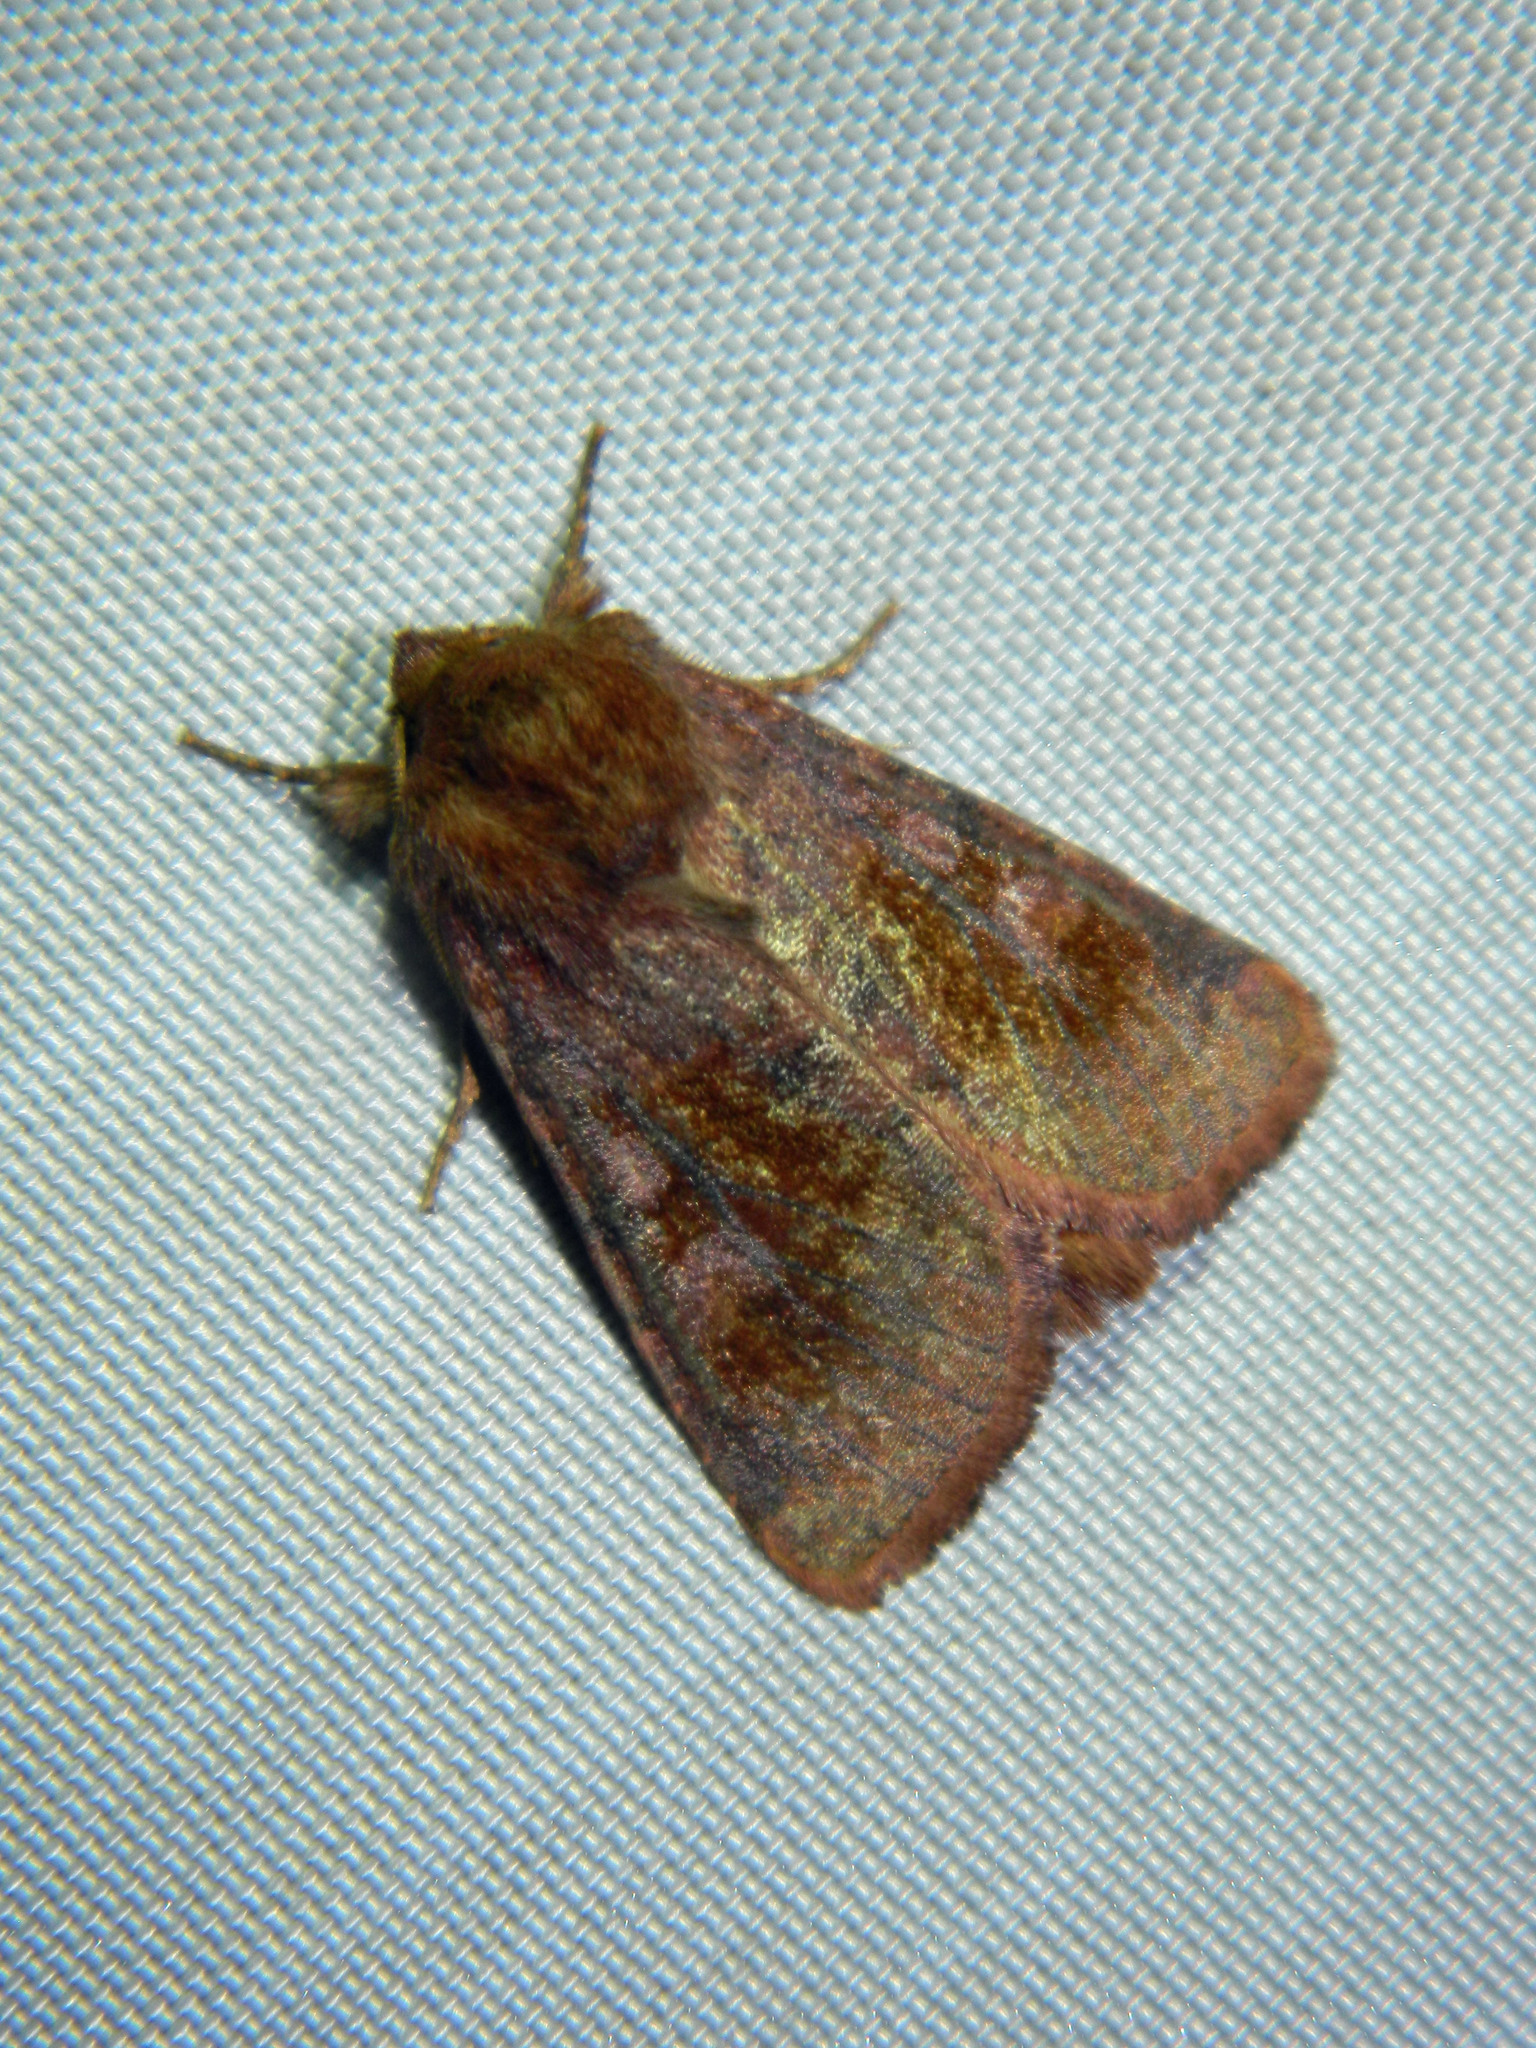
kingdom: Animalia
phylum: Arthropoda
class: Insecta
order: Lepidoptera
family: Noctuidae
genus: Nephelodes
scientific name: Nephelodes minians
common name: Bronzed cutworm
